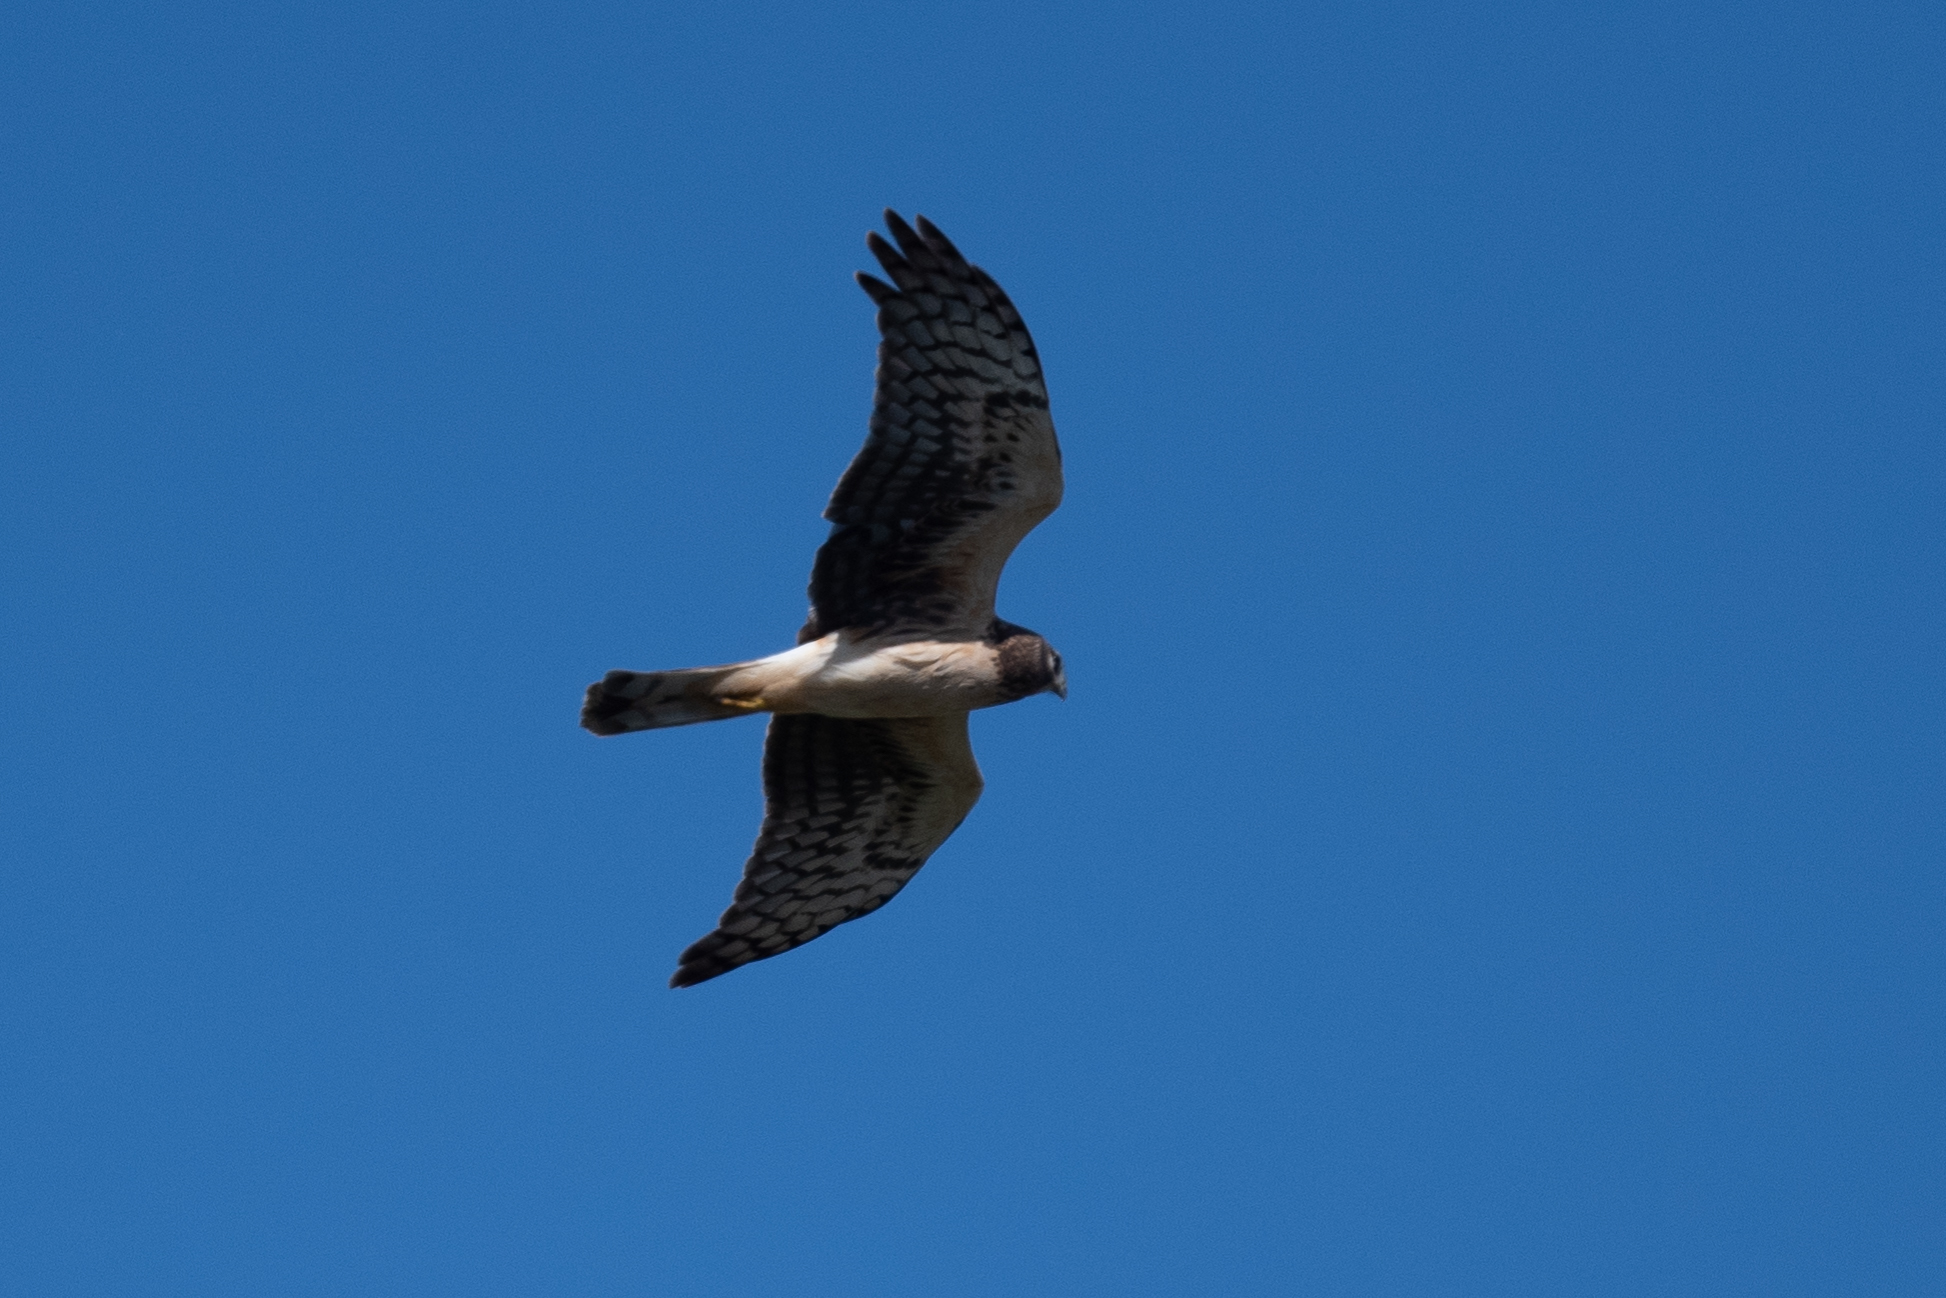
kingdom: Animalia
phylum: Chordata
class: Aves
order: Accipitriformes
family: Accipitridae
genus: Circus
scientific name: Circus cyaneus
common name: Hen harrier
